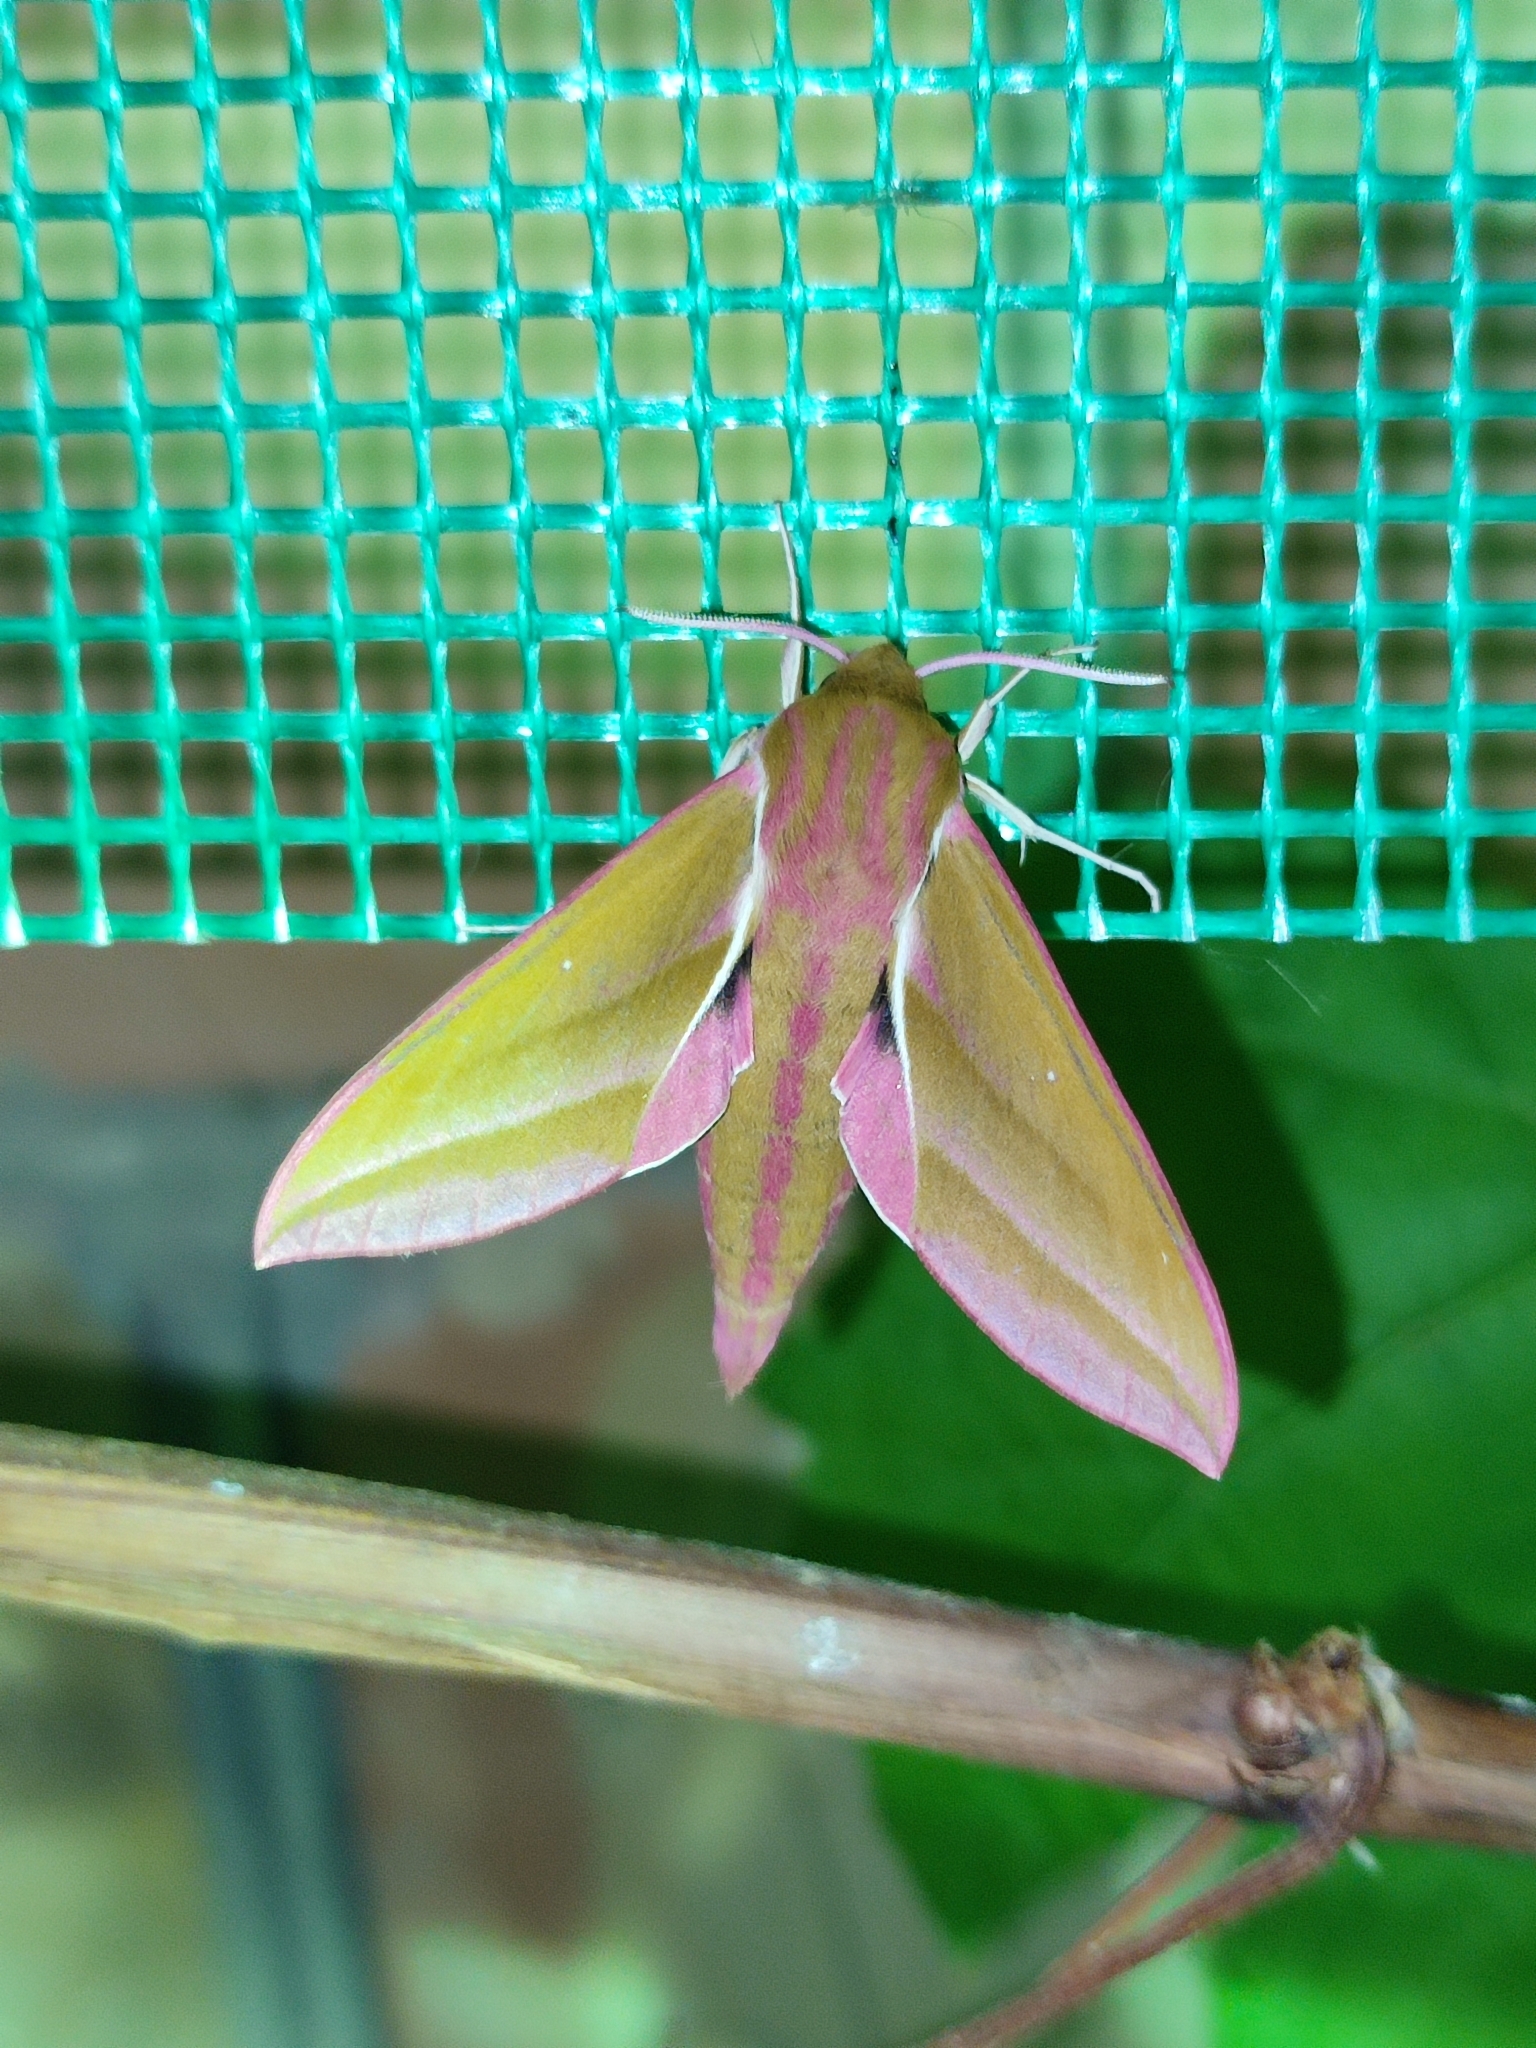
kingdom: Animalia
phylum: Arthropoda
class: Insecta
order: Lepidoptera
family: Sphingidae
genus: Deilephila
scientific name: Deilephila elpenor
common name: Elephant hawk-moth
